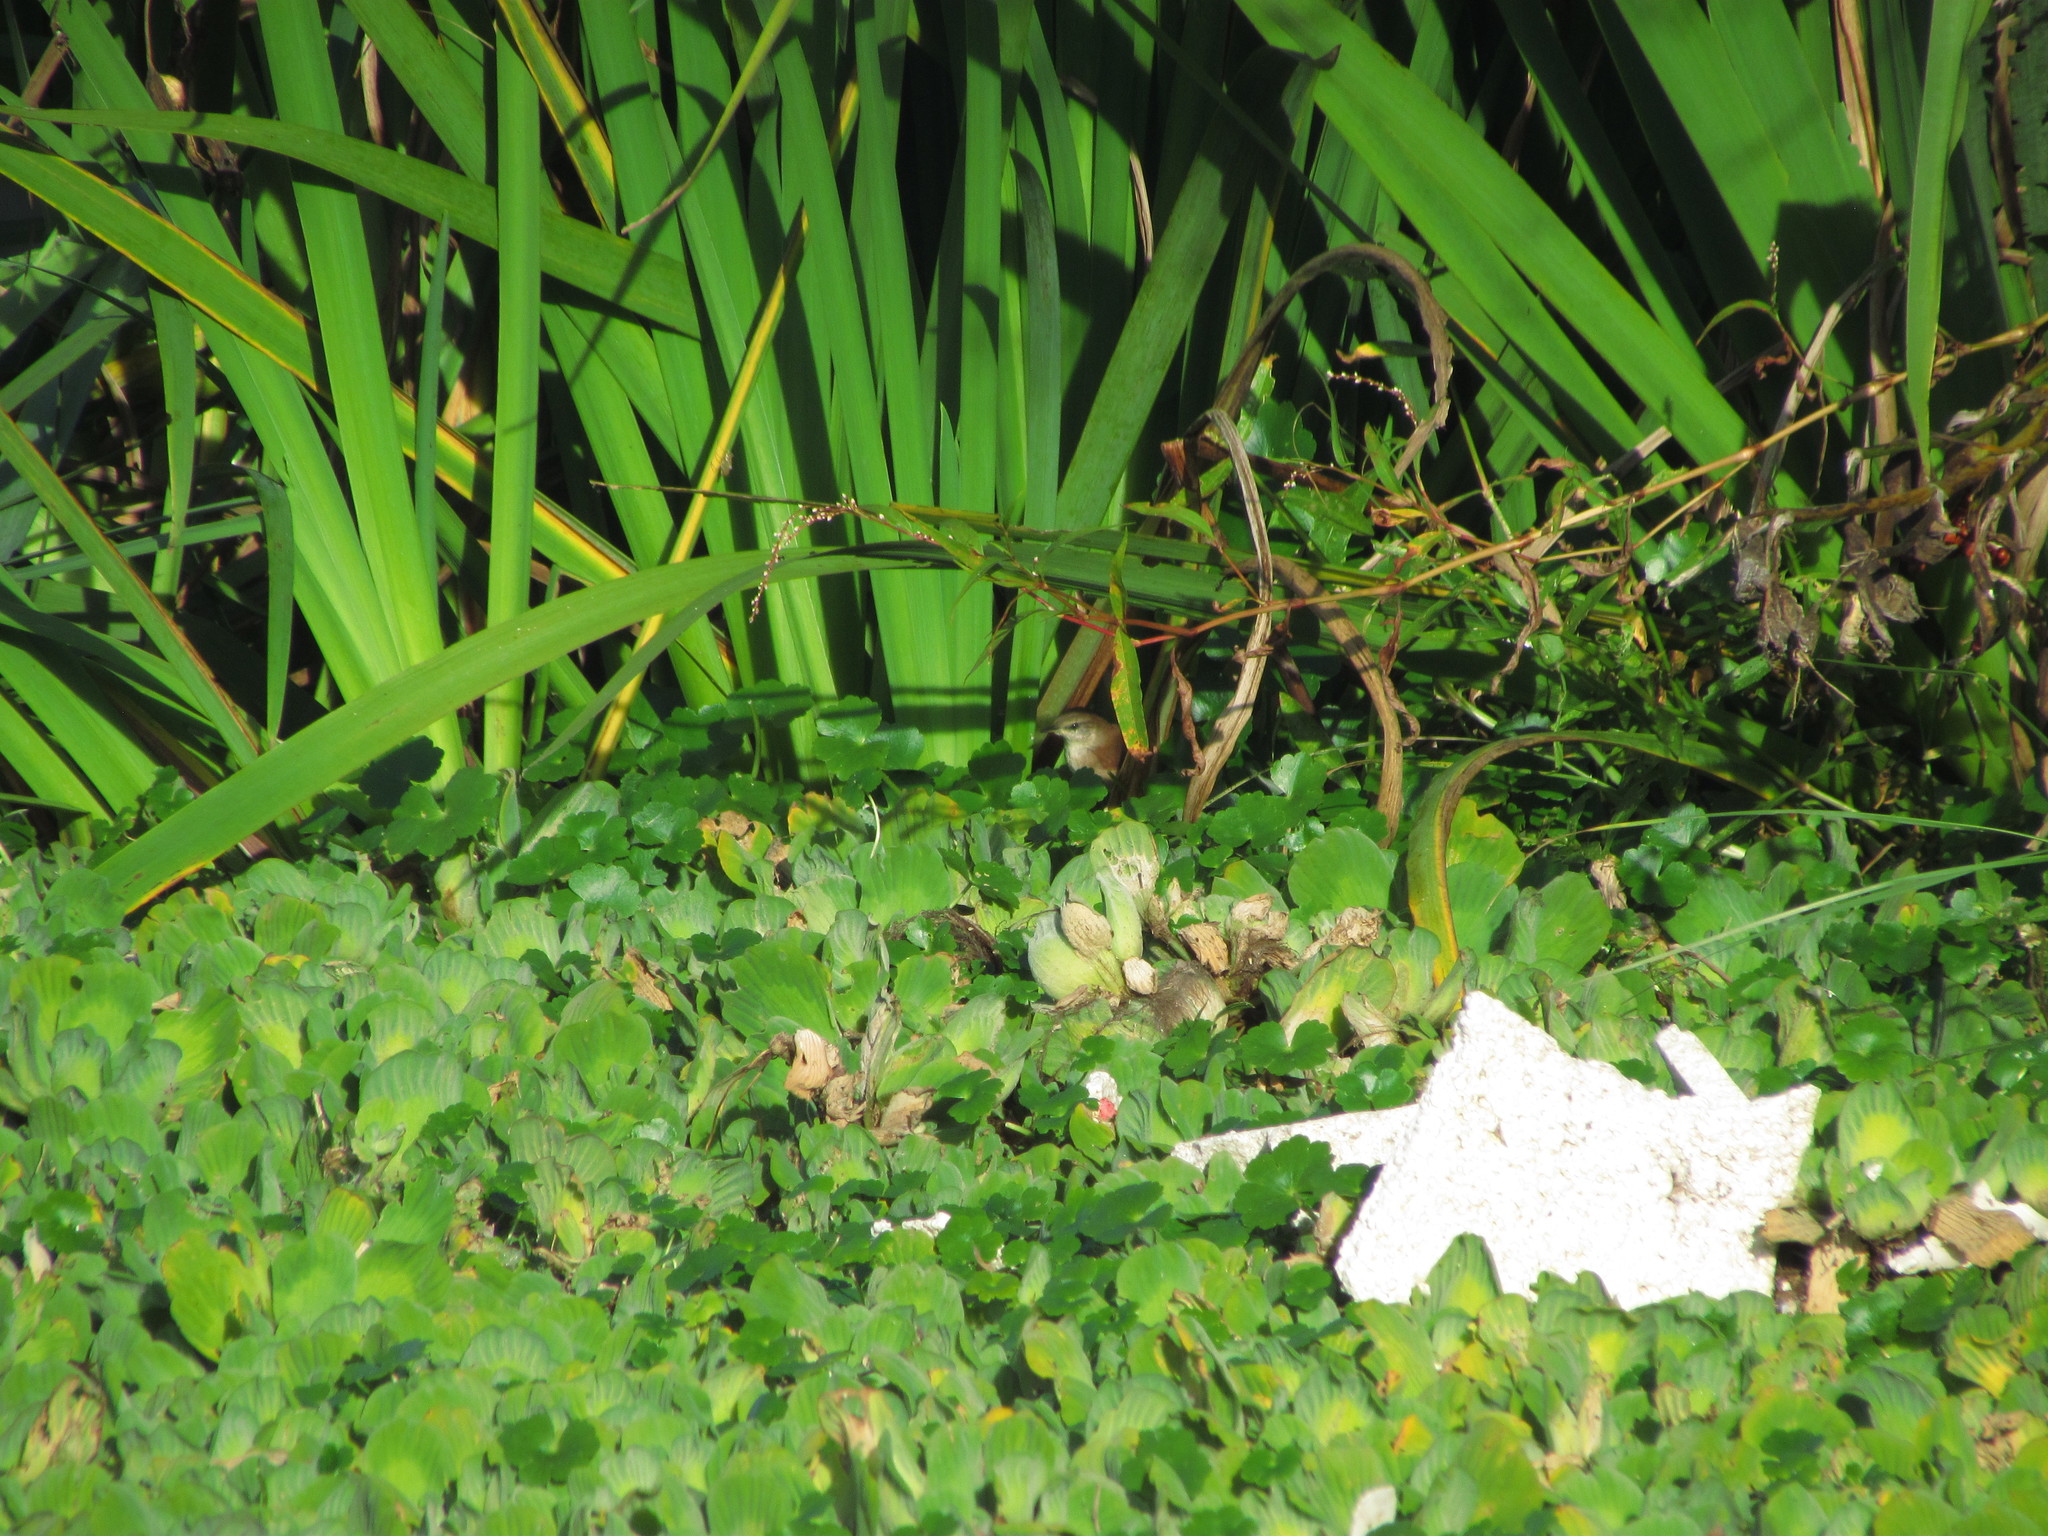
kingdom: Animalia
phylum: Chordata
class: Aves
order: Passeriformes
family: Furnariidae
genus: Certhiaxis
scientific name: Certhiaxis cinnamomeus
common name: Yellow-chinned spinetail
